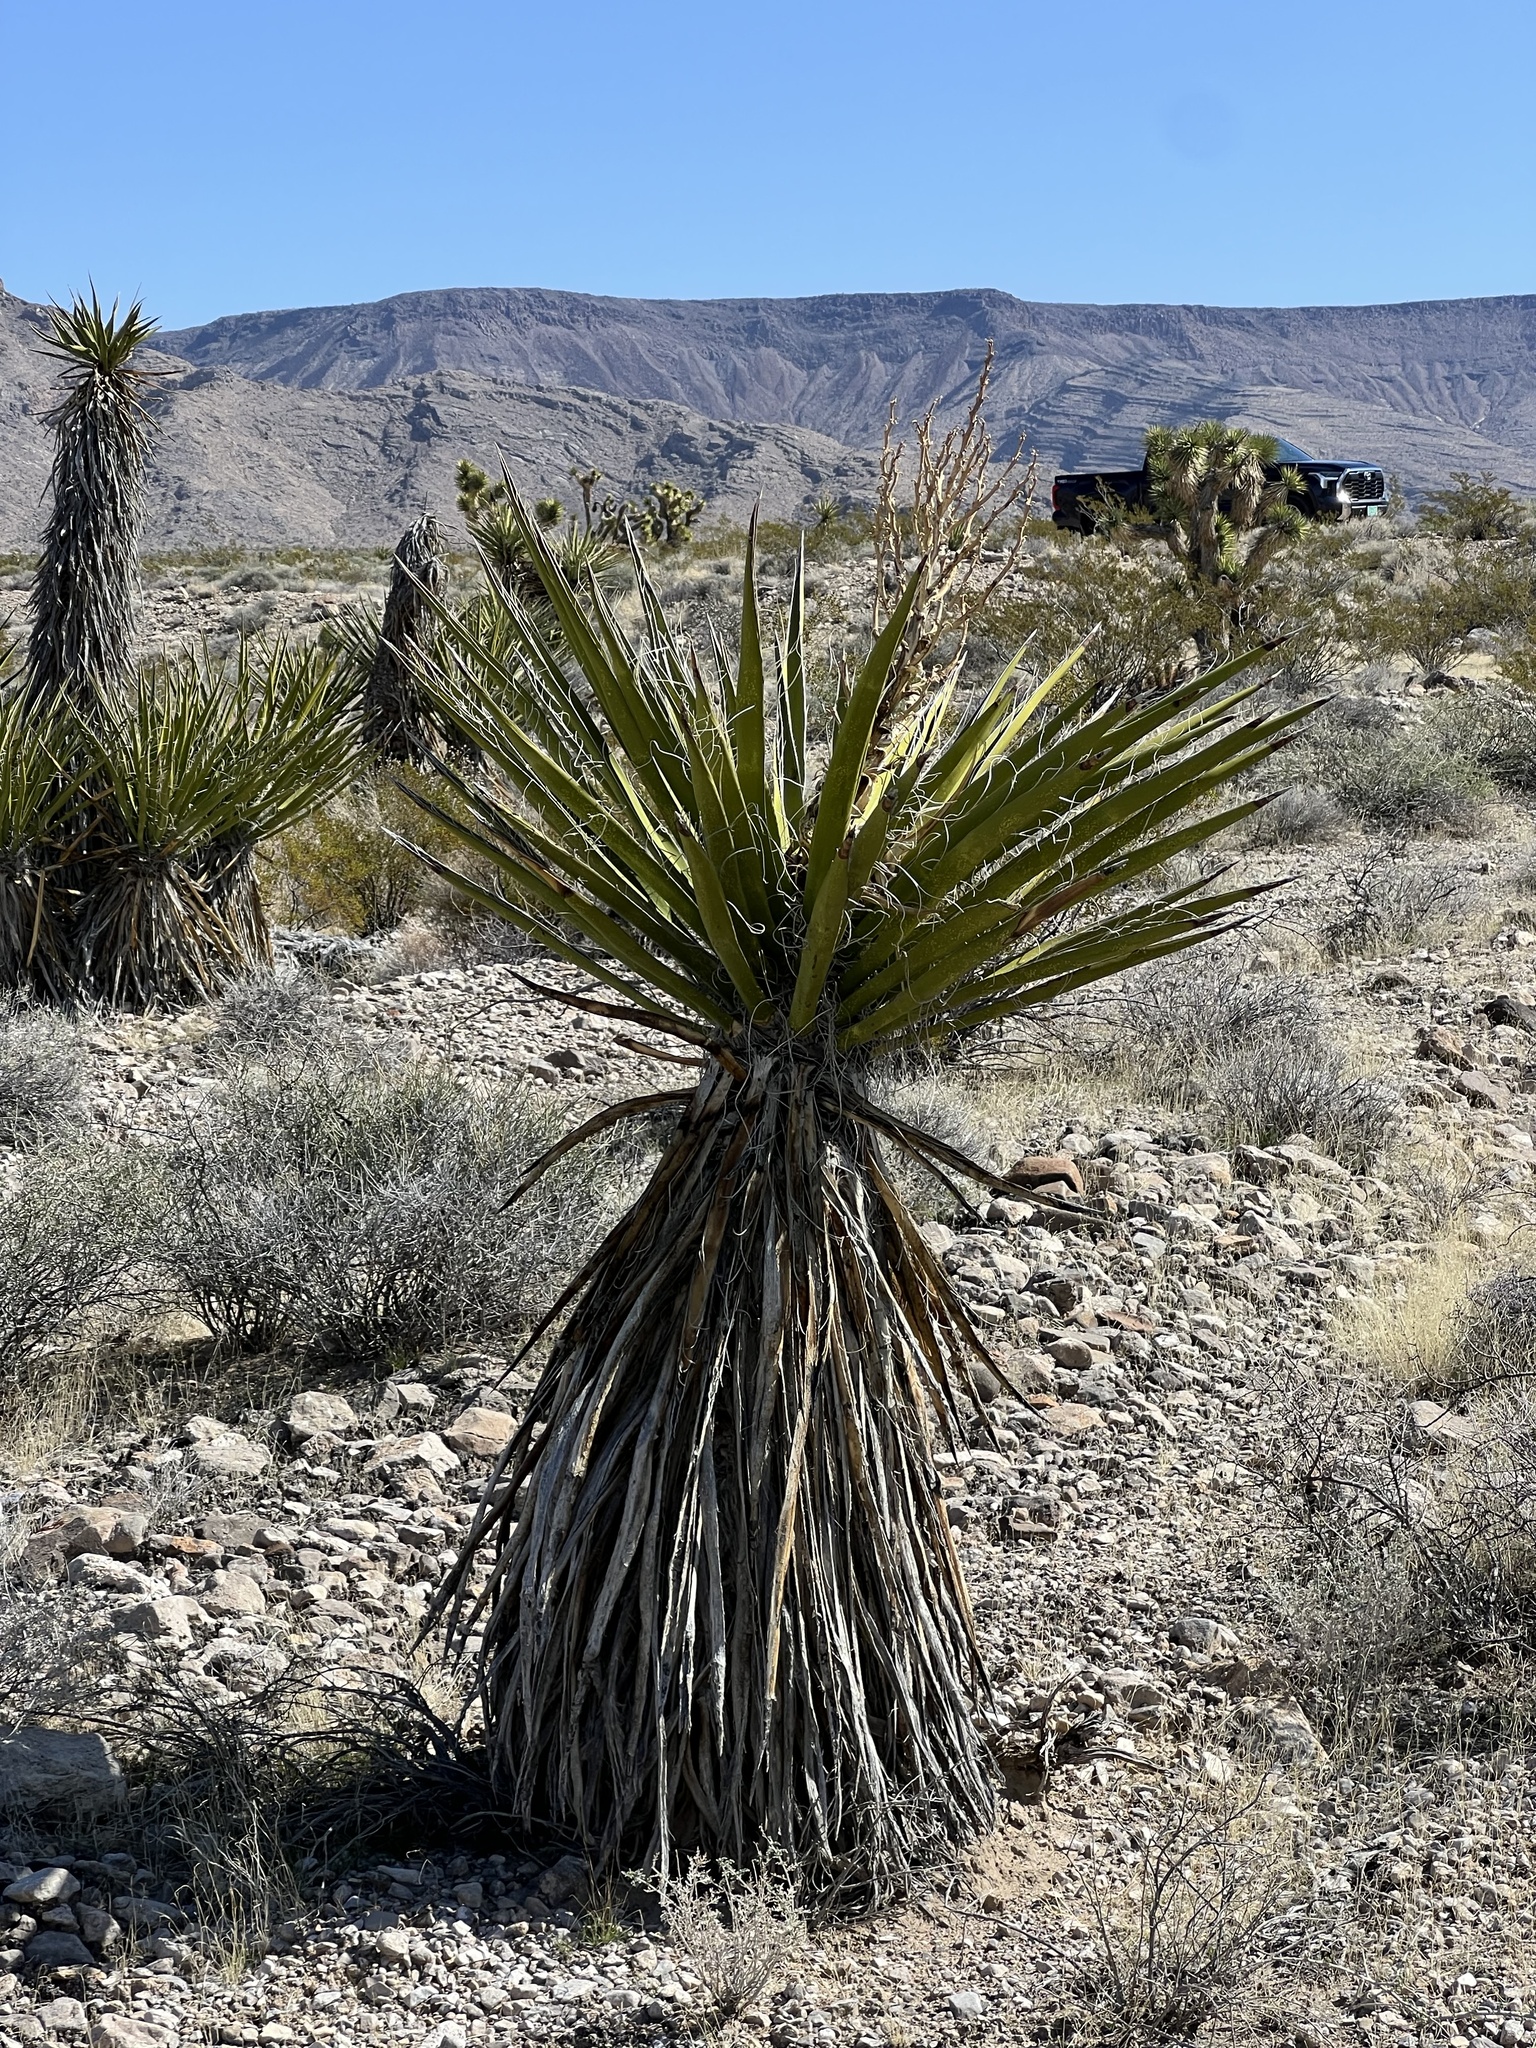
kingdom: Plantae
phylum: Tracheophyta
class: Liliopsida
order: Asparagales
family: Asparagaceae
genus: Yucca
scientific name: Yucca schidigera
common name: Mojave yucca
